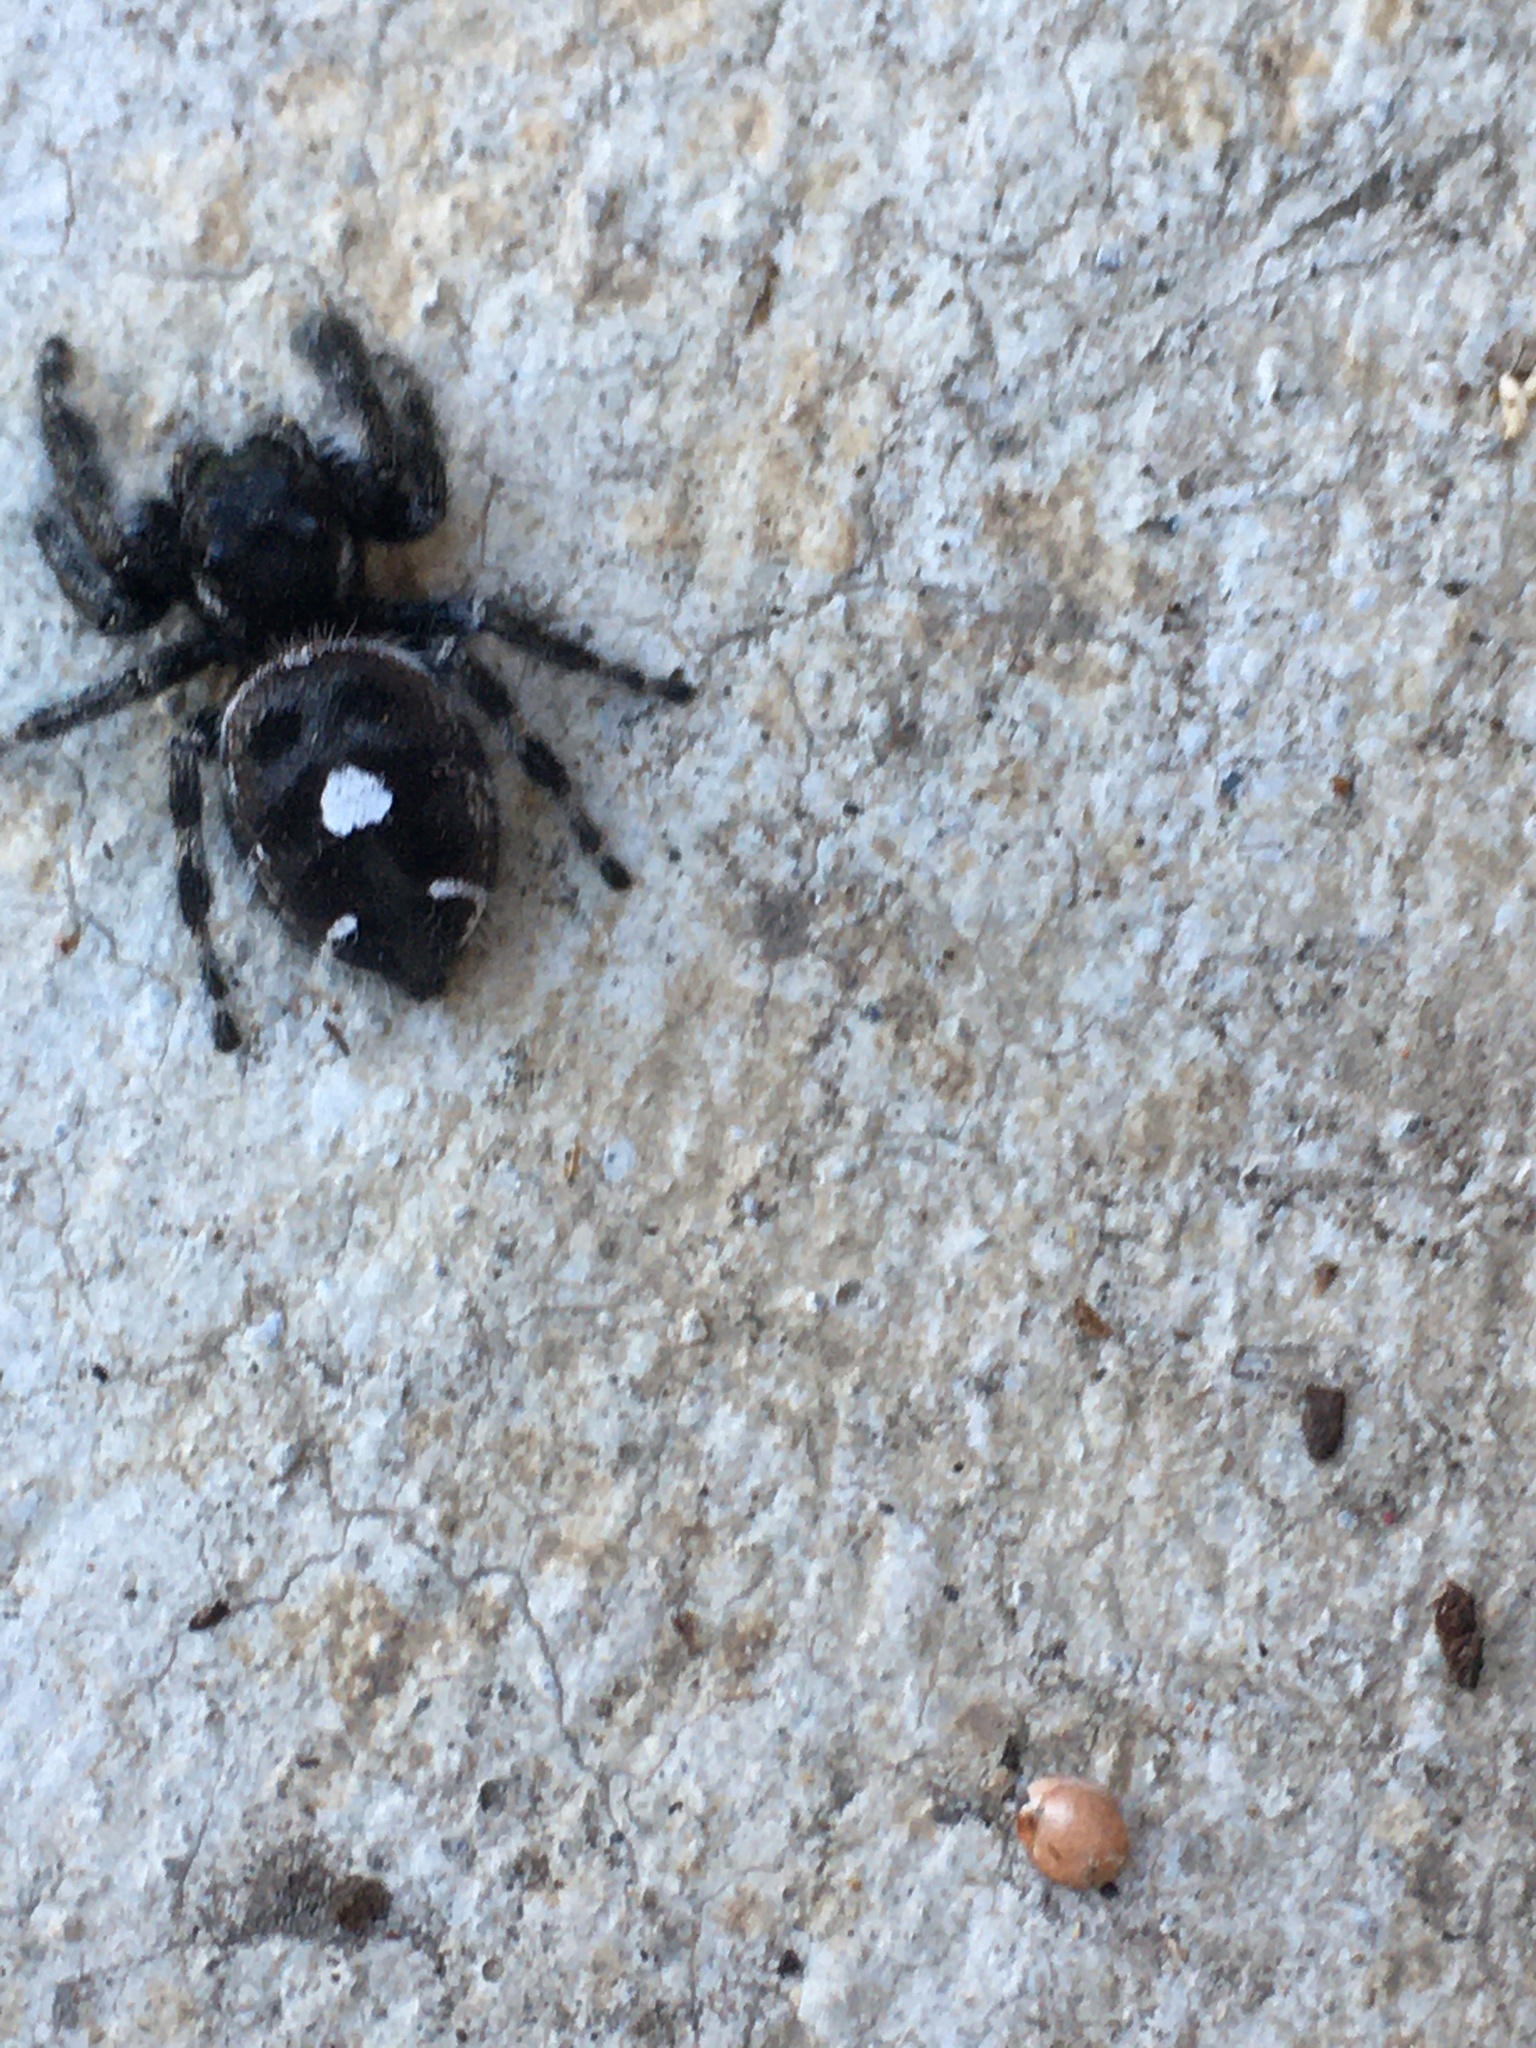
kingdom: Animalia
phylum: Arthropoda
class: Arachnida
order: Araneae
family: Salticidae
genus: Phidippus
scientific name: Phidippus audax
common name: Bold jumper
